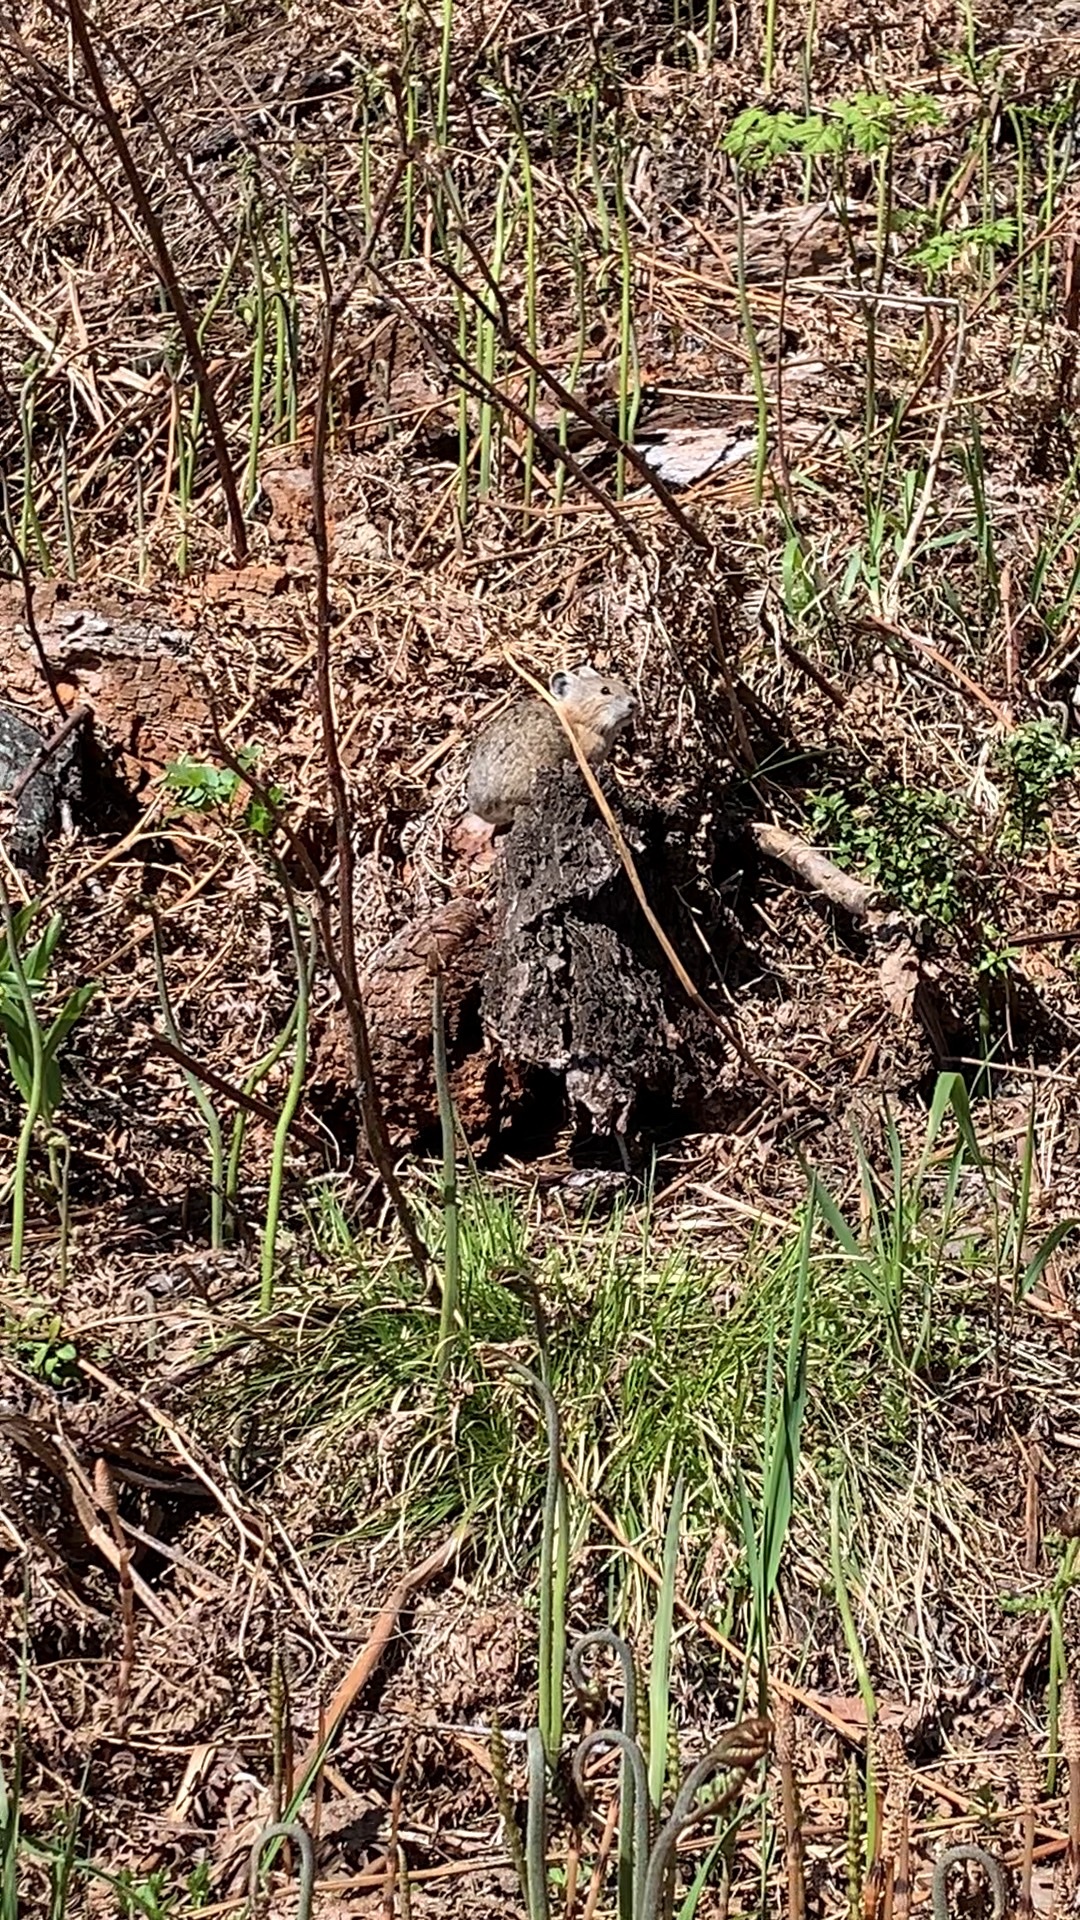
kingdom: Animalia
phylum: Chordata
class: Mammalia
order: Lagomorpha
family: Ochotonidae
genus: Ochotona
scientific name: Ochotona princeps
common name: American pika
